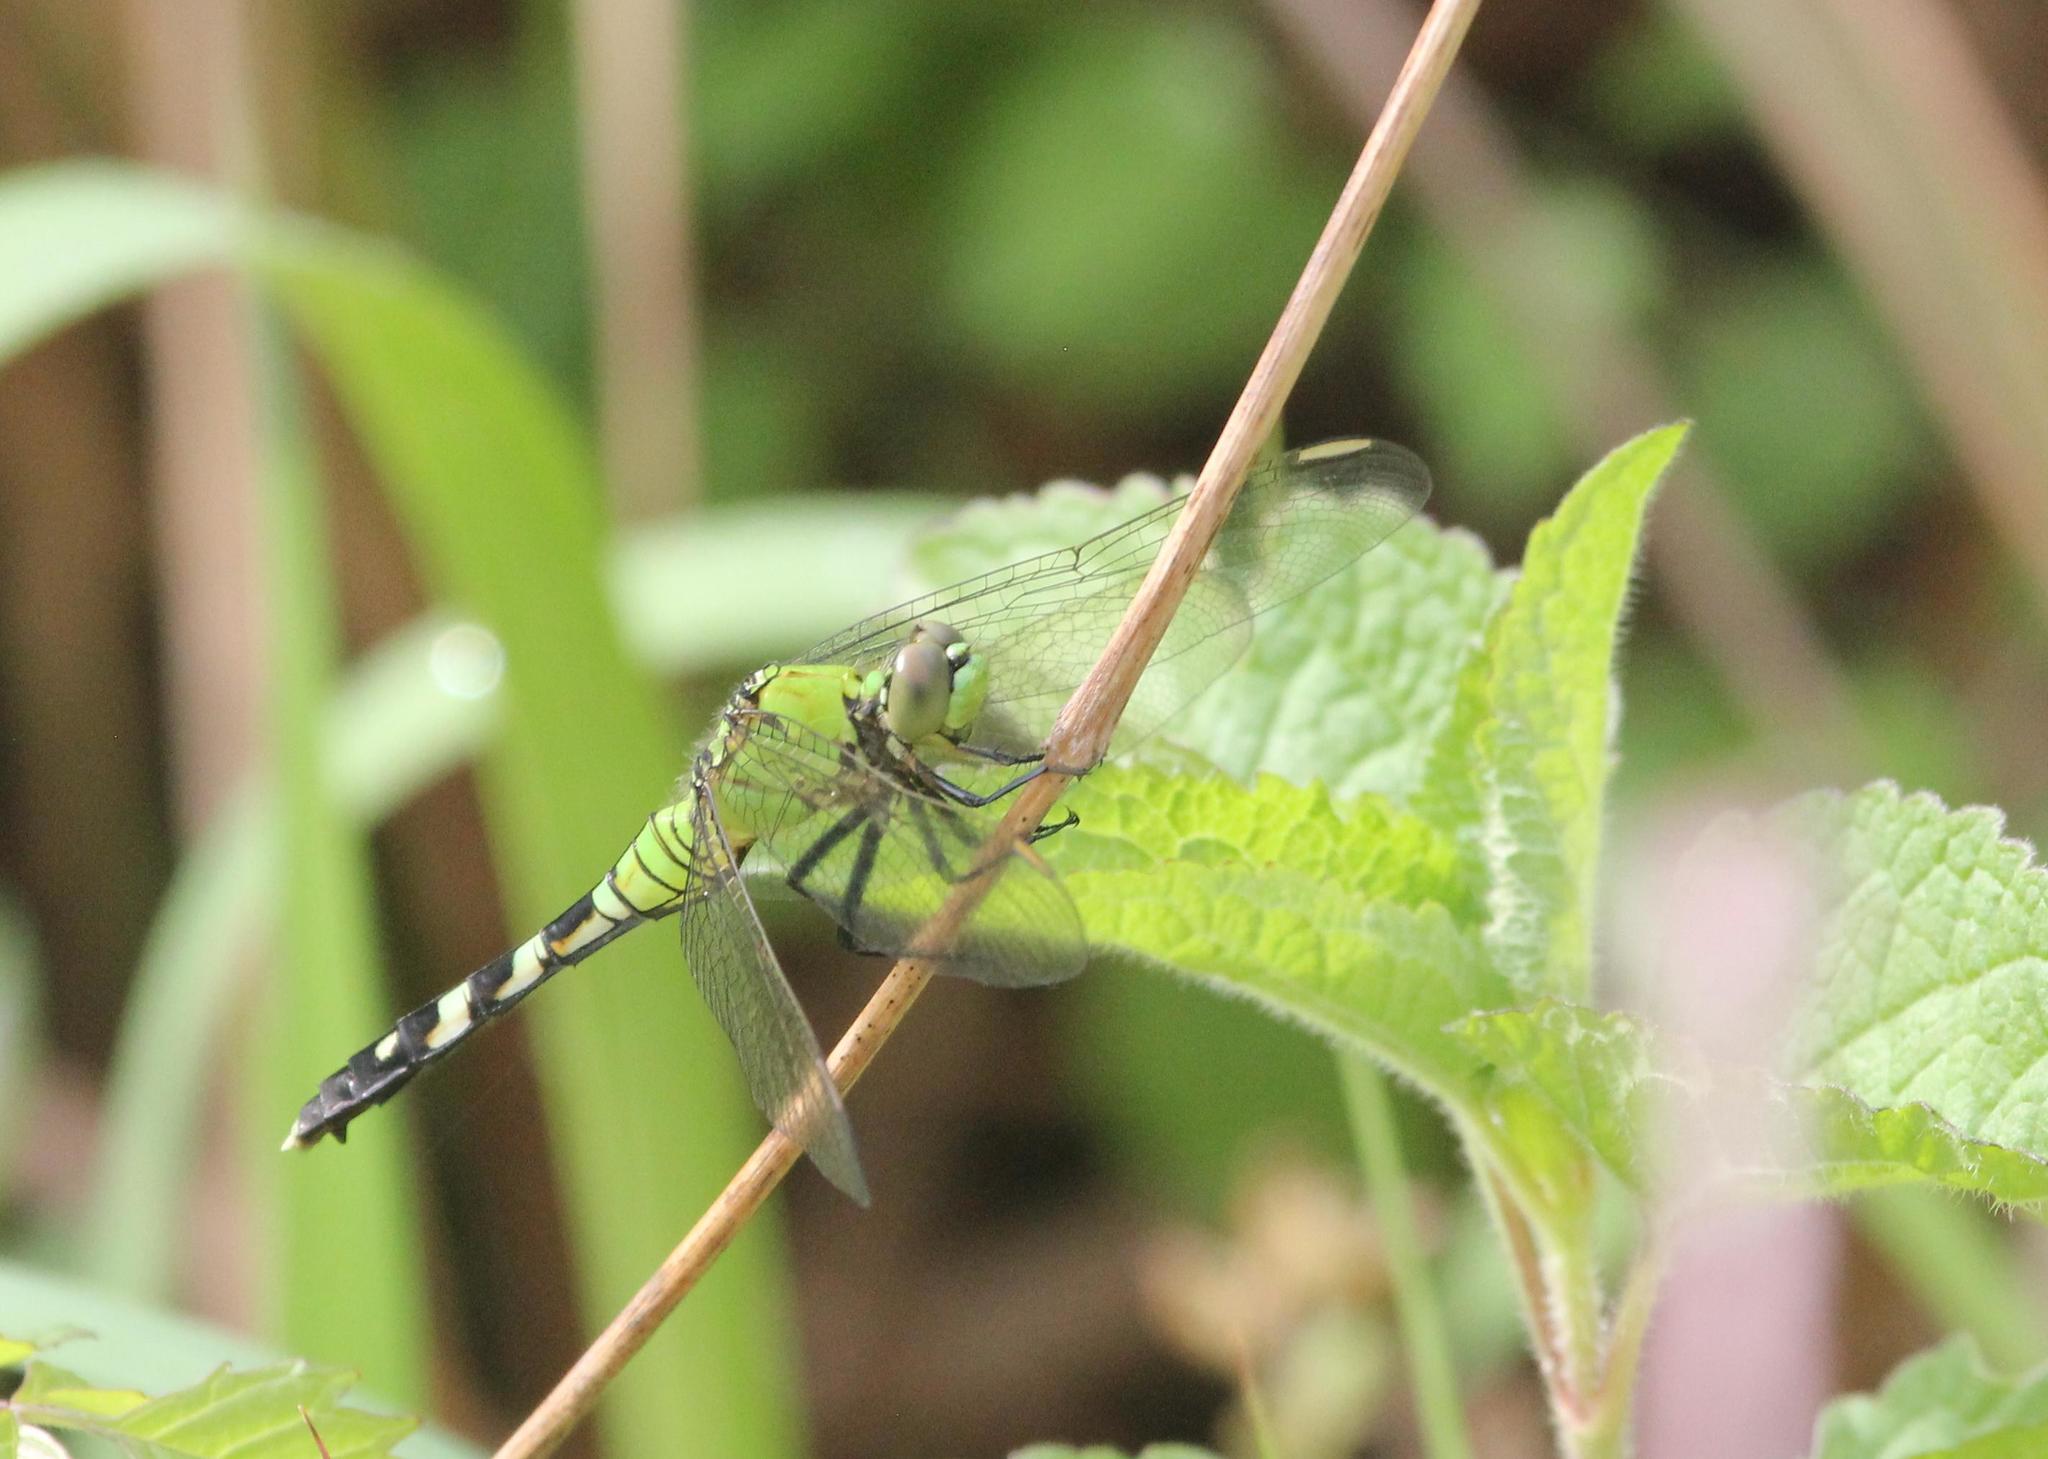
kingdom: Animalia
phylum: Arthropoda
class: Insecta
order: Odonata
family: Libellulidae
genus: Erythemis
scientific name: Erythemis simplicicollis
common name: Eastern pondhawk
